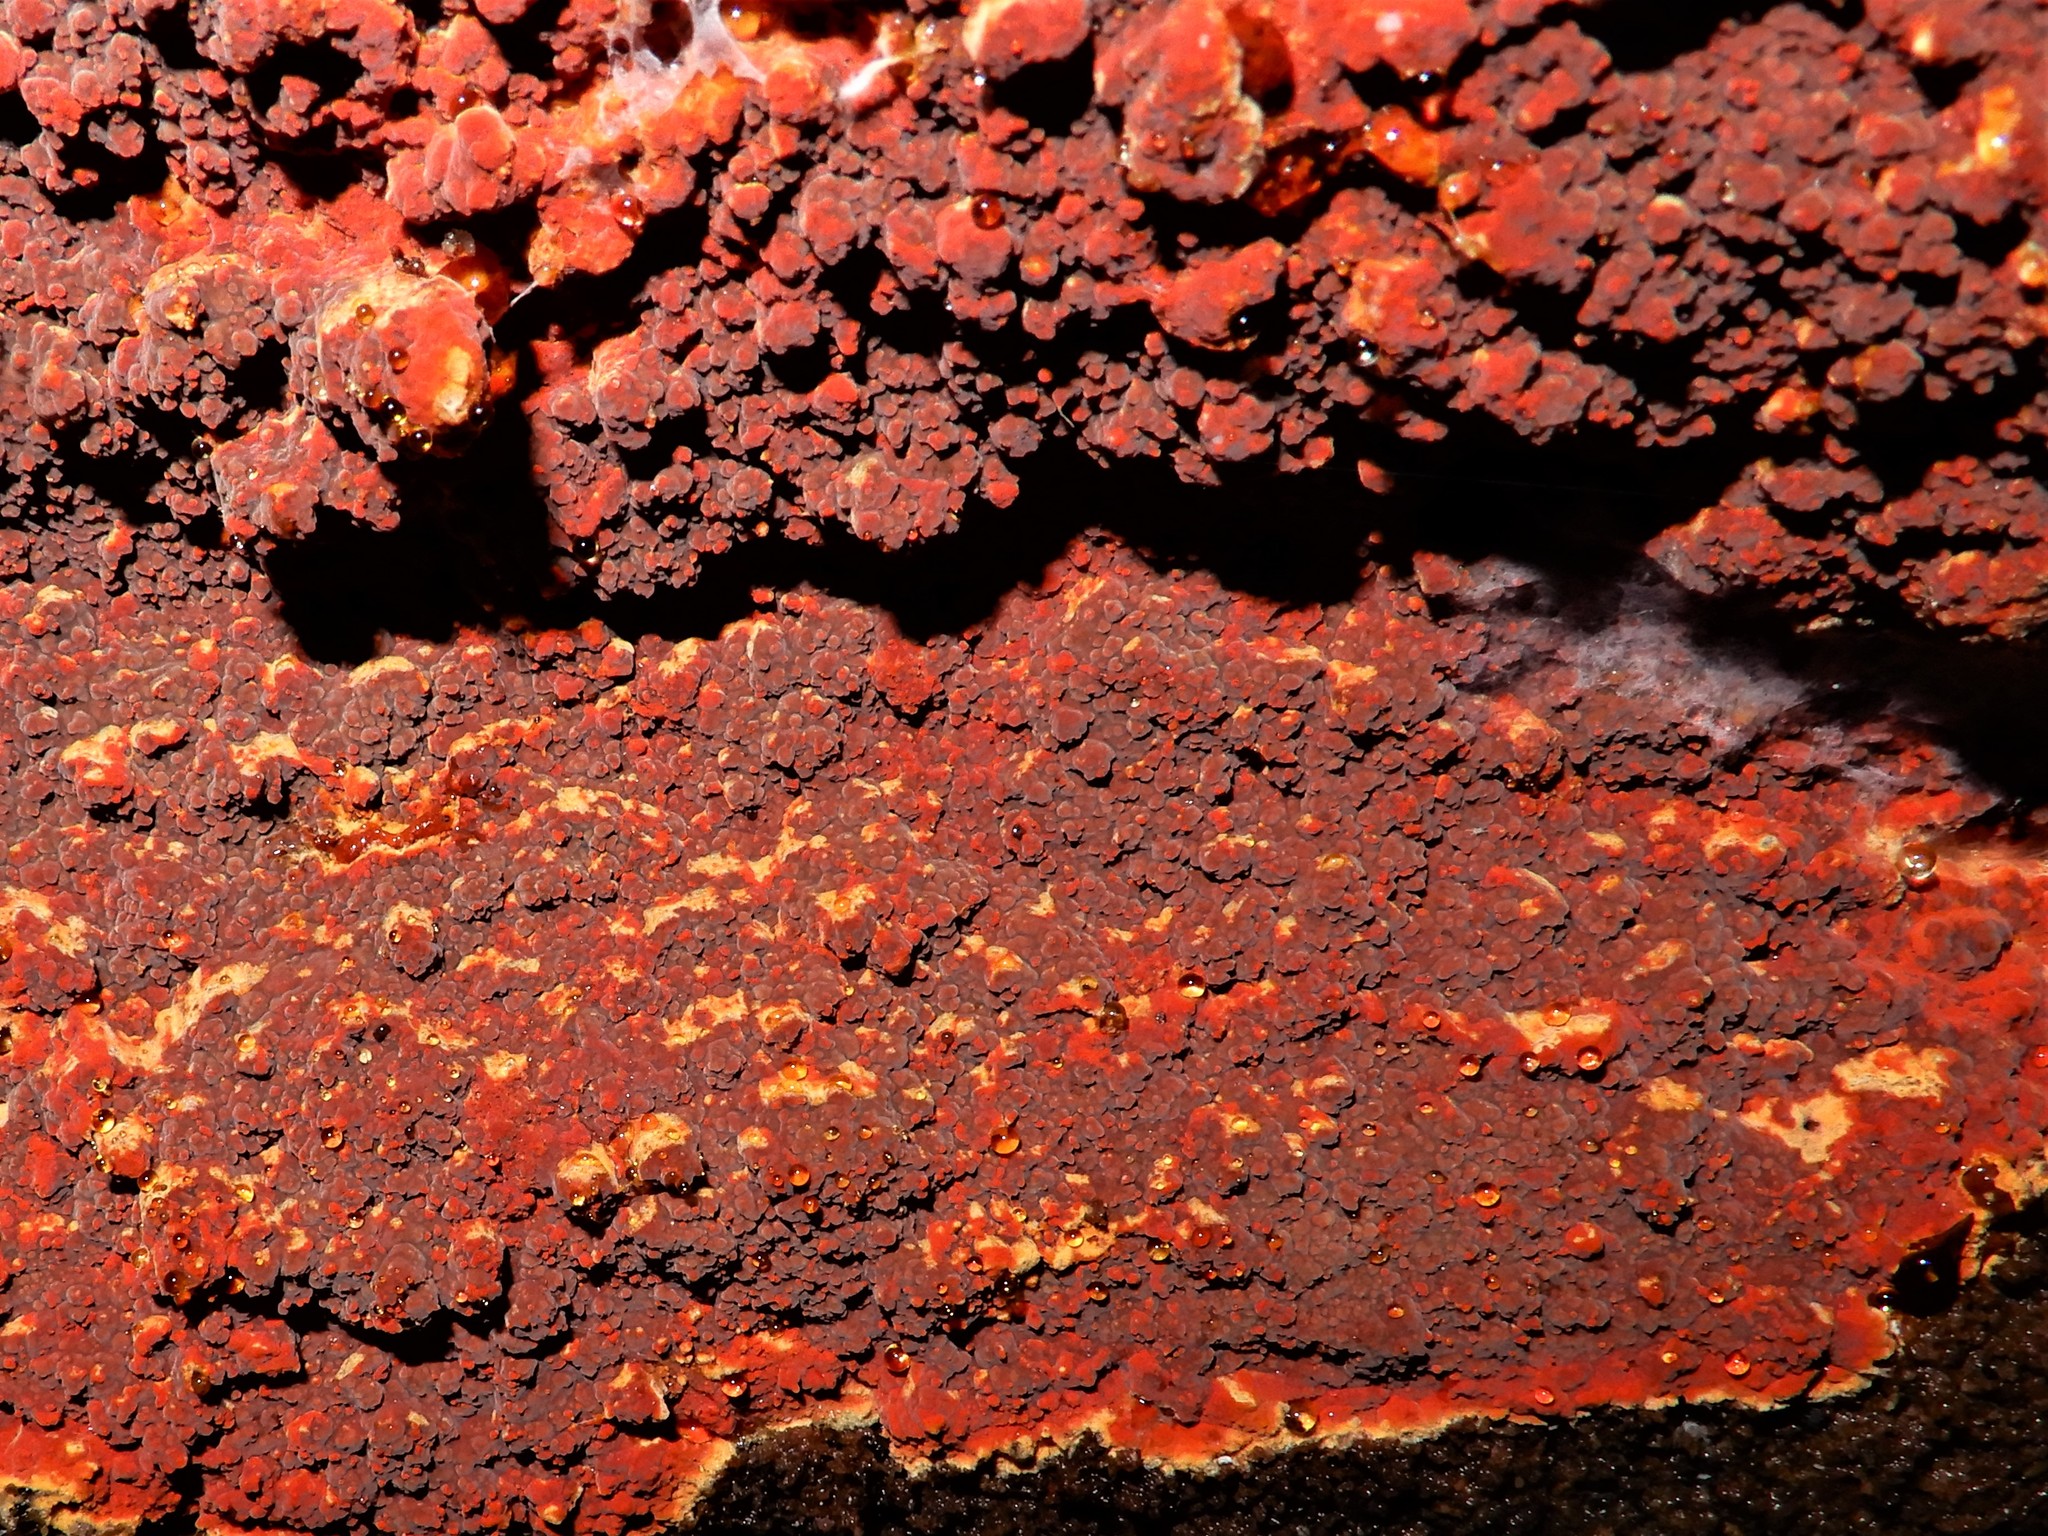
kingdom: Fungi
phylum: Basidiomycota
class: Agaricomycetes
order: Polyporales
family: Meruliaceae
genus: Phlebia
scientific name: Phlebia coccineofulva
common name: Scarlet waxcrust
